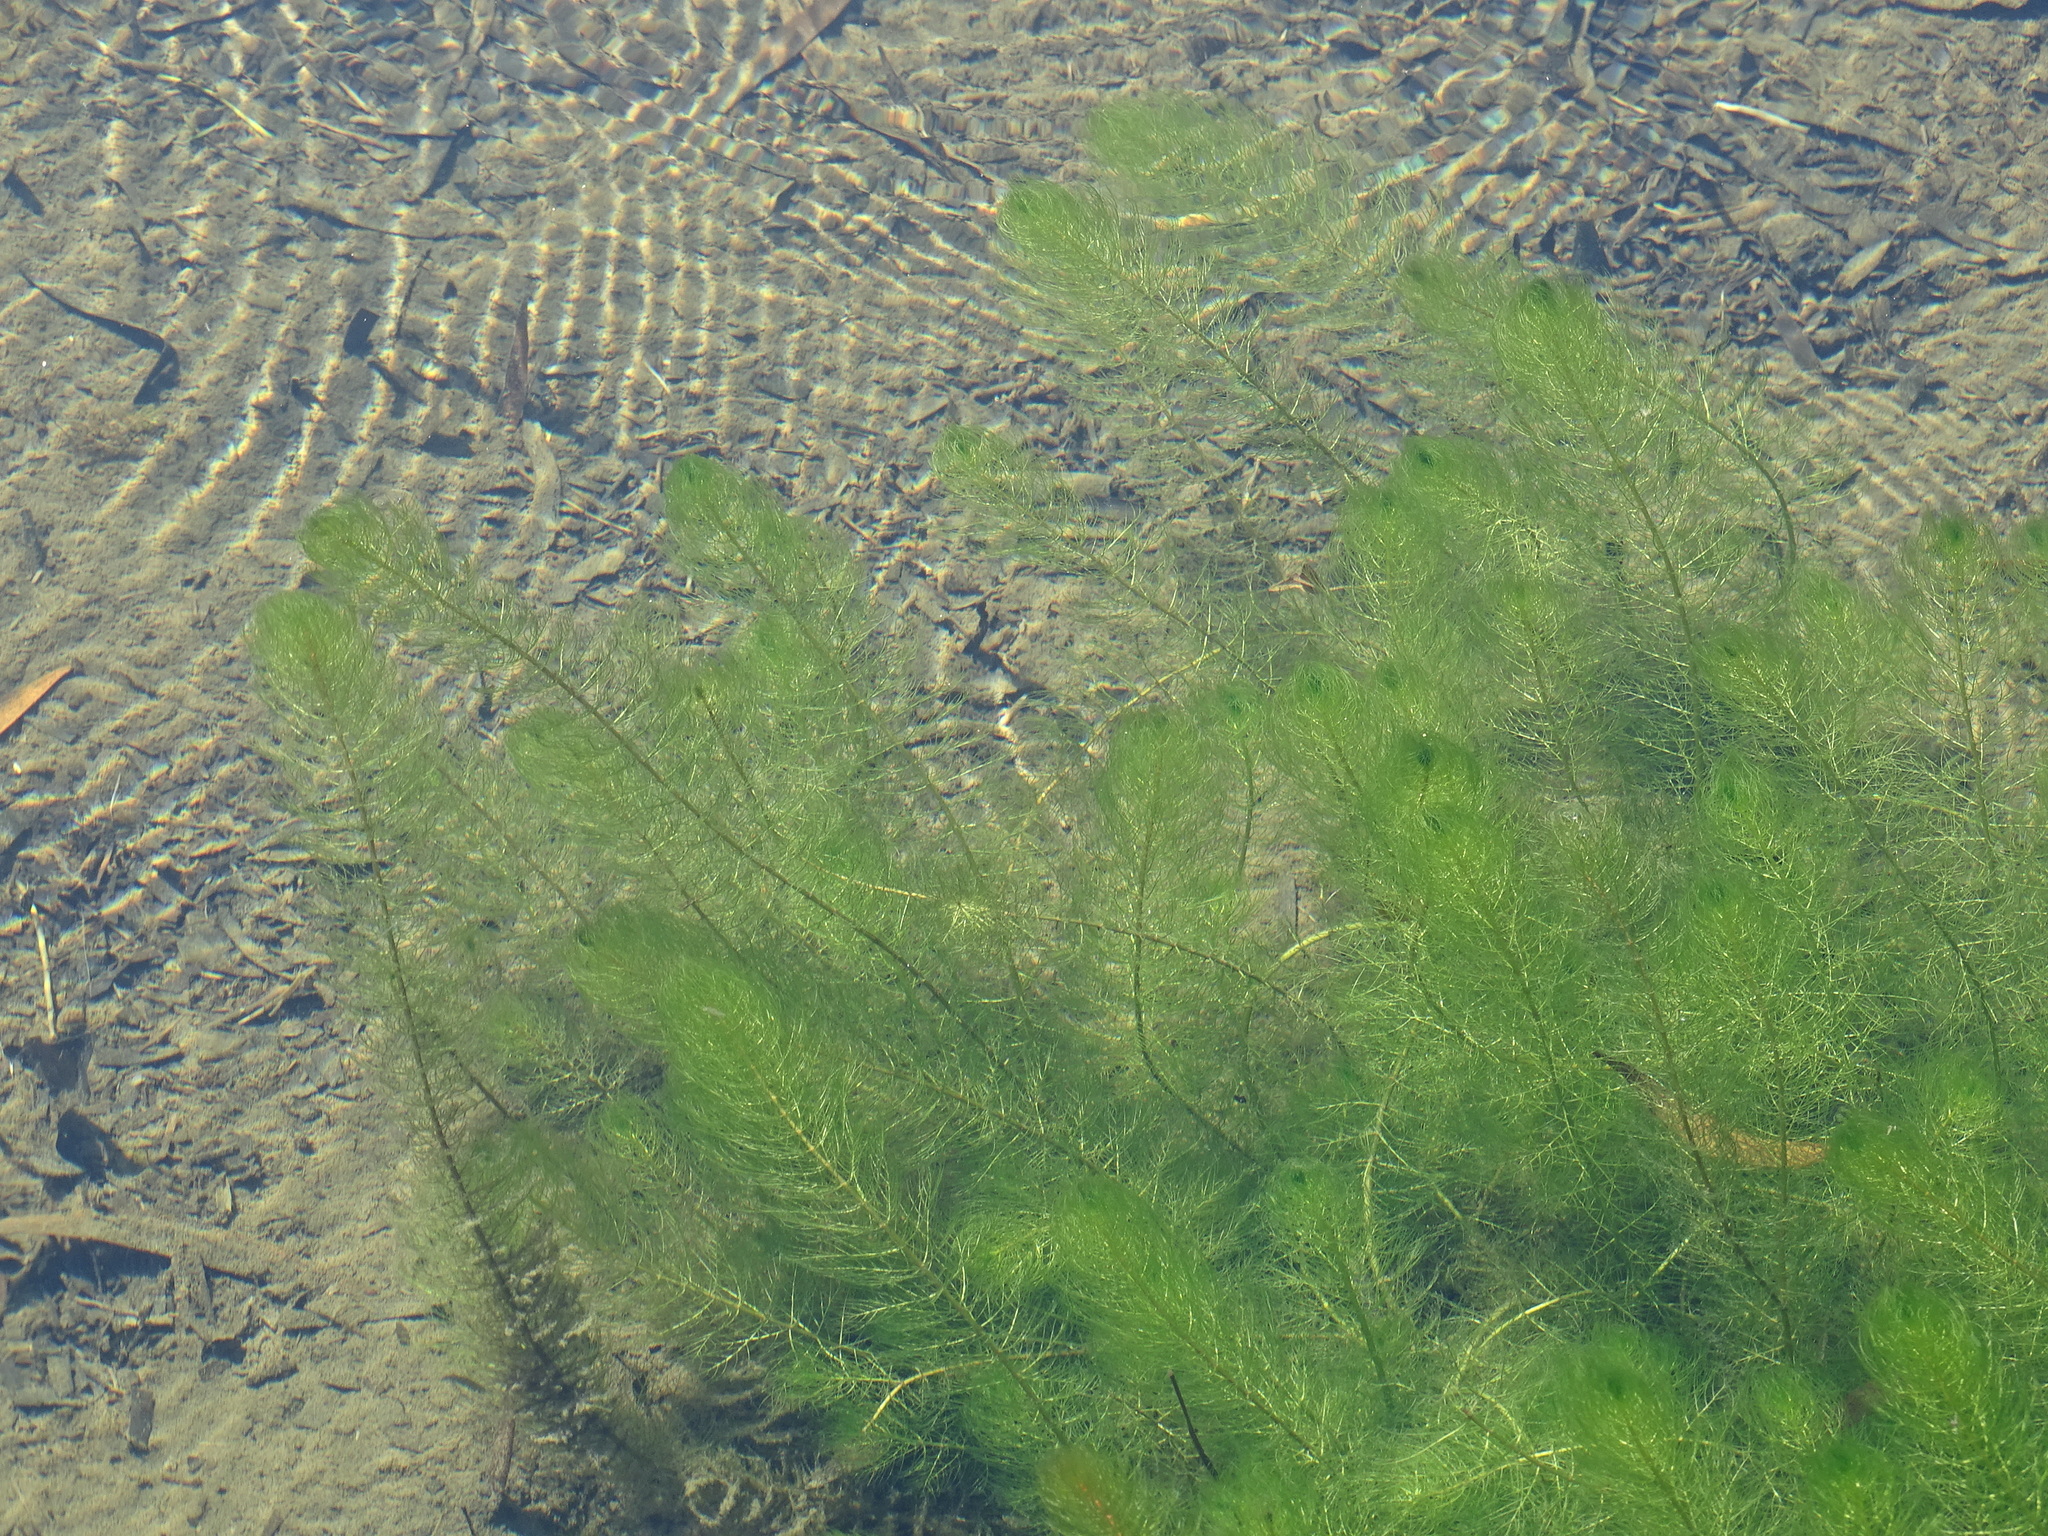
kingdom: Plantae
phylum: Tracheophyta
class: Magnoliopsida
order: Ceratophyllales
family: Ceratophyllaceae
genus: Ceratophyllum
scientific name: Ceratophyllum demersum
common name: Rigid hornwort
